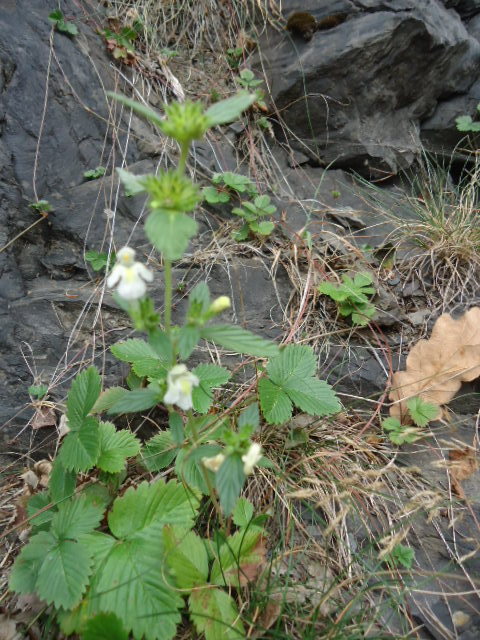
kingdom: Plantae
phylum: Tracheophyta
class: Magnoliopsida
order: Lamiales
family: Lamiaceae
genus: Galeopsis
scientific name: Galeopsis segetum
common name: Downy hemp-nettle
